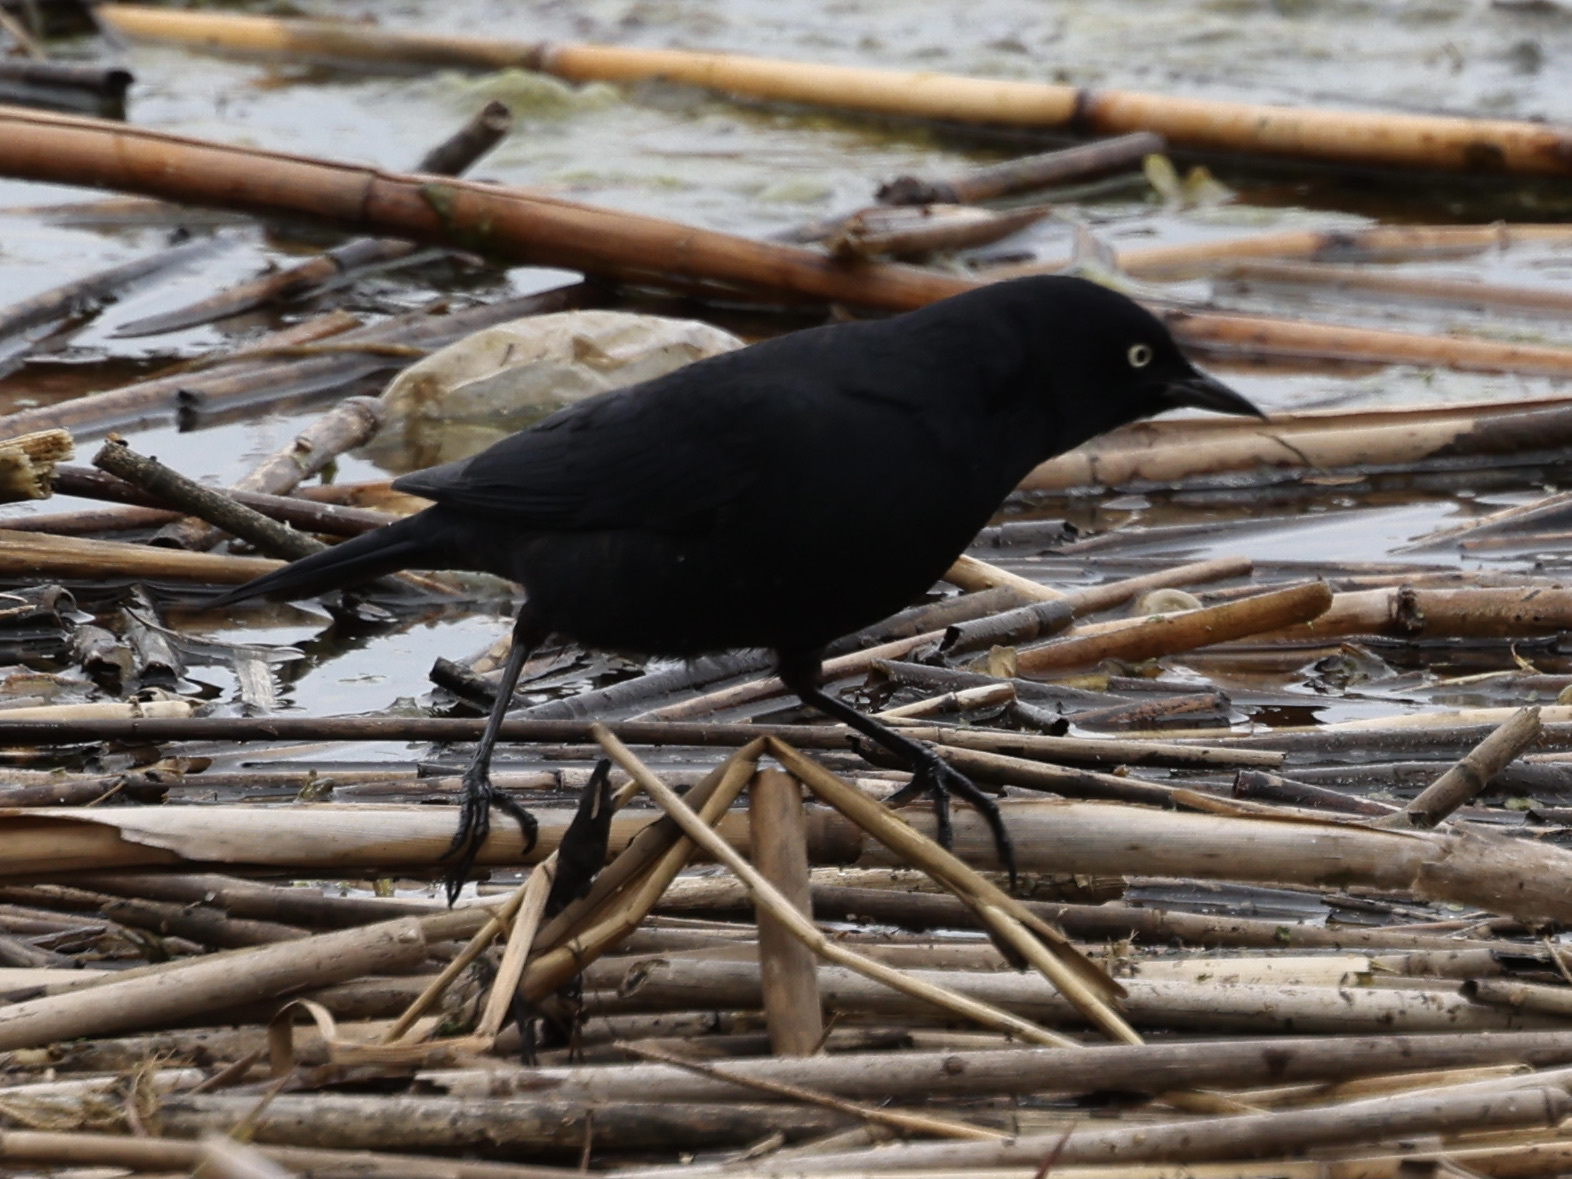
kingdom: Animalia
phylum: Chordata
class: Aves
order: Passeriformes
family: Icteridae
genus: Euphagus
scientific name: Euphagus carolinus
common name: Rusty blackbird
